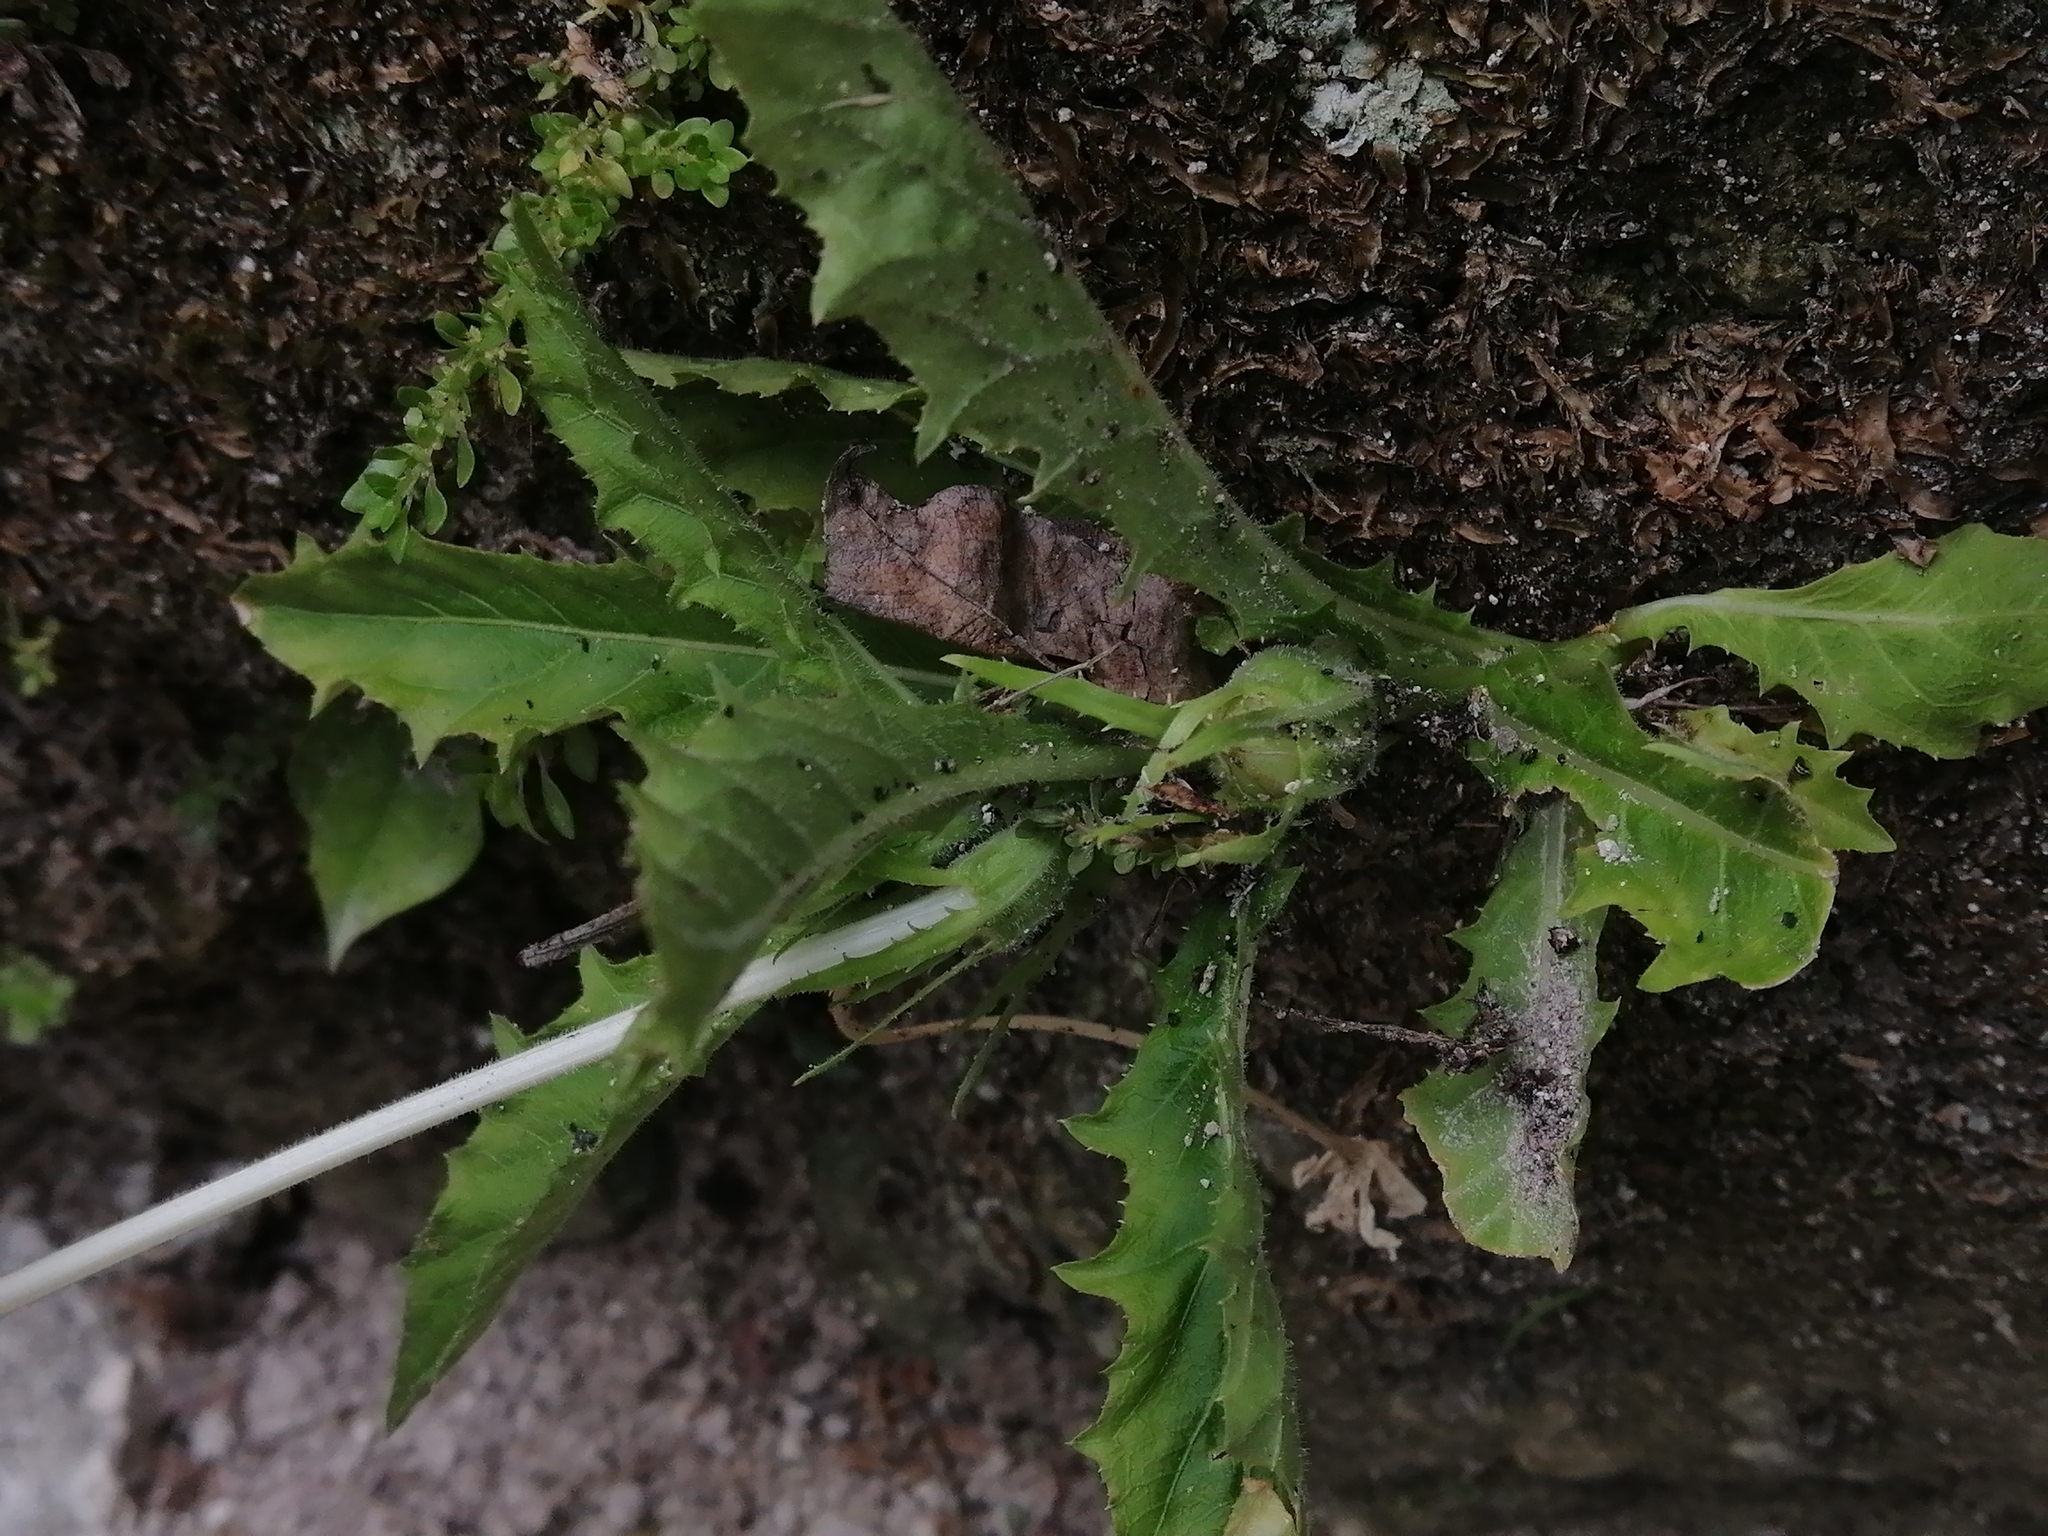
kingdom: Plantae
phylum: Tracheophyta
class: Magnoliopsida
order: Asterales
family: Campanulaceae
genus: Hippobroma
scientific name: Hippobroma longiflora
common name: Madamfate
